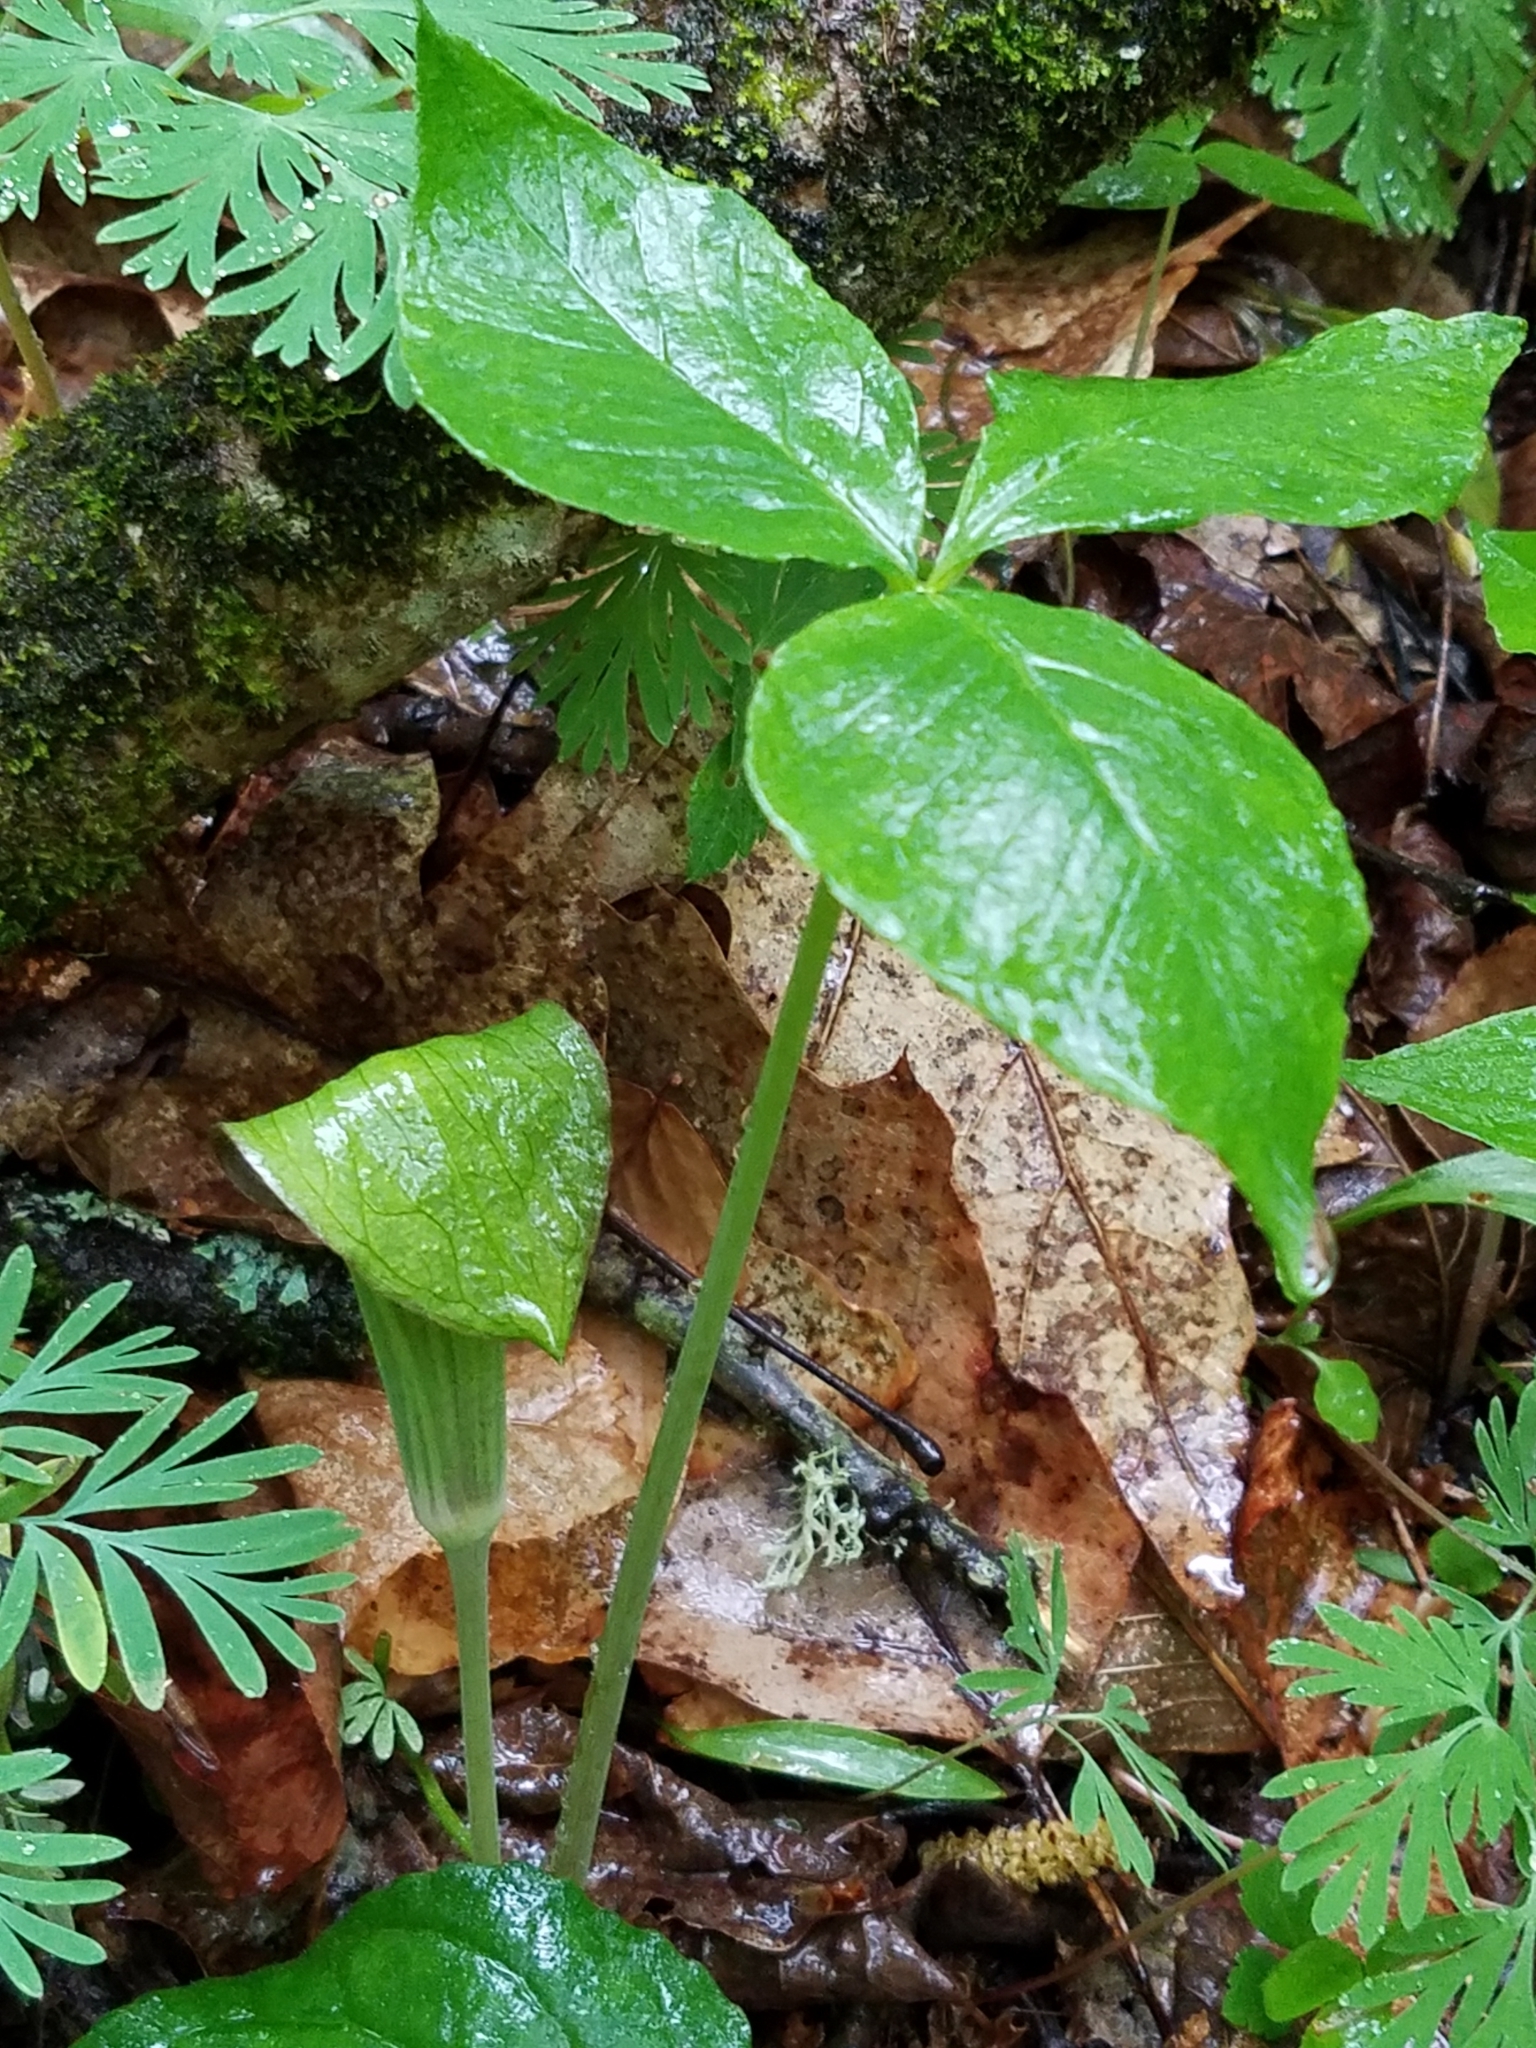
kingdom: Plantae
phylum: Tracheophyta
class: Liliopsida
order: Alismatales
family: Araceae
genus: Arisaema
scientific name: Arisaema triphyllum
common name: Jack-in-the-pulpit
